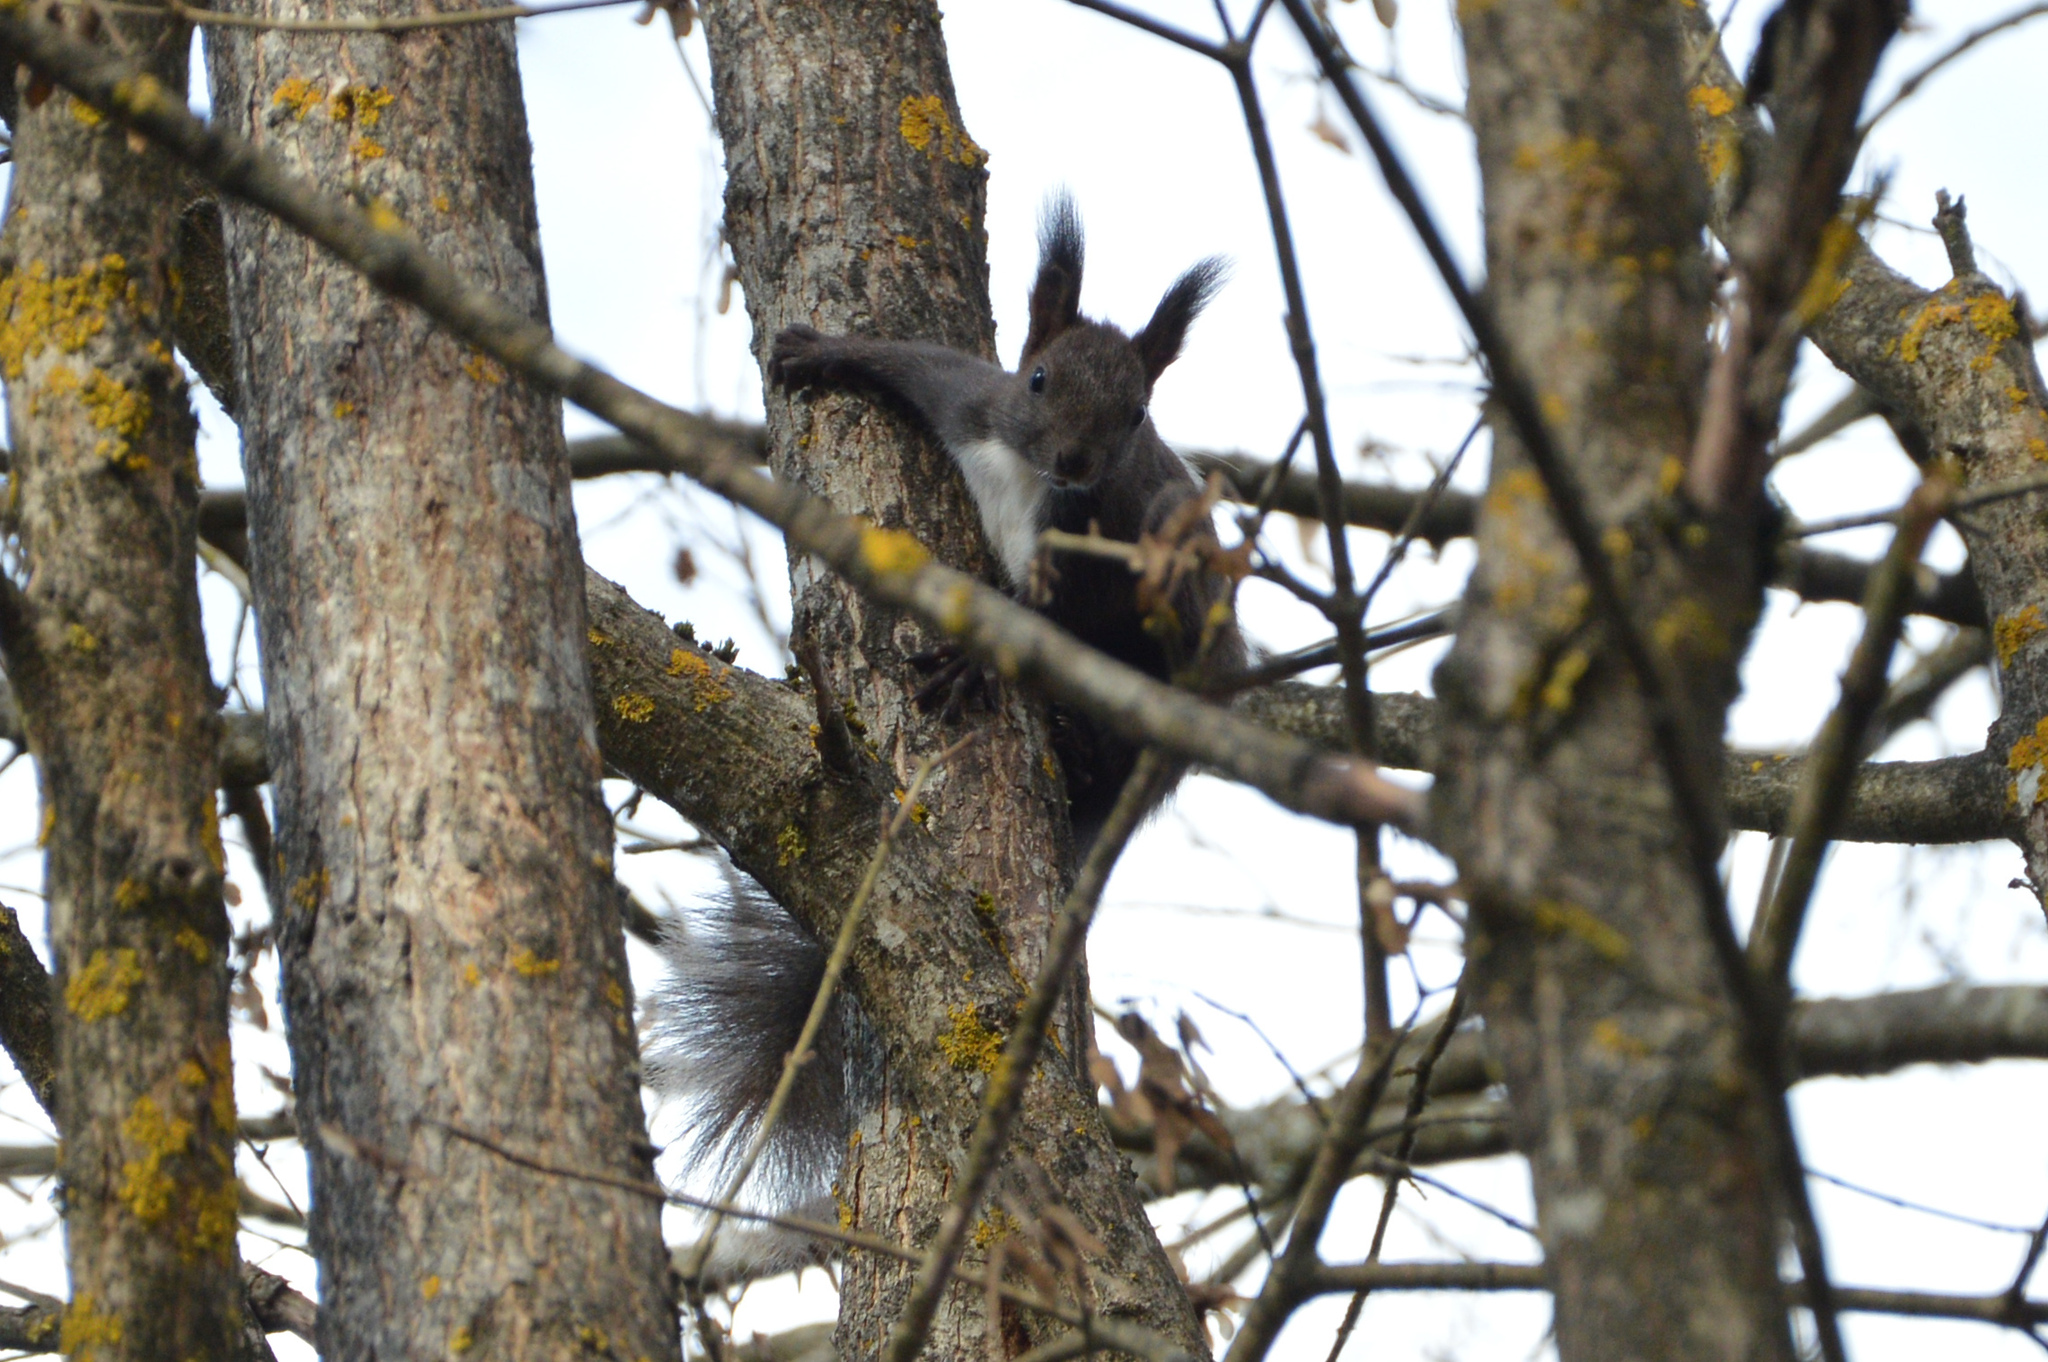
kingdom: Animalia
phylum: Chordata
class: Mammalia
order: Rodentia
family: Sciuridae
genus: Sciurus
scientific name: Sciurus vulgaris
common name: Eurasian red squirrel
